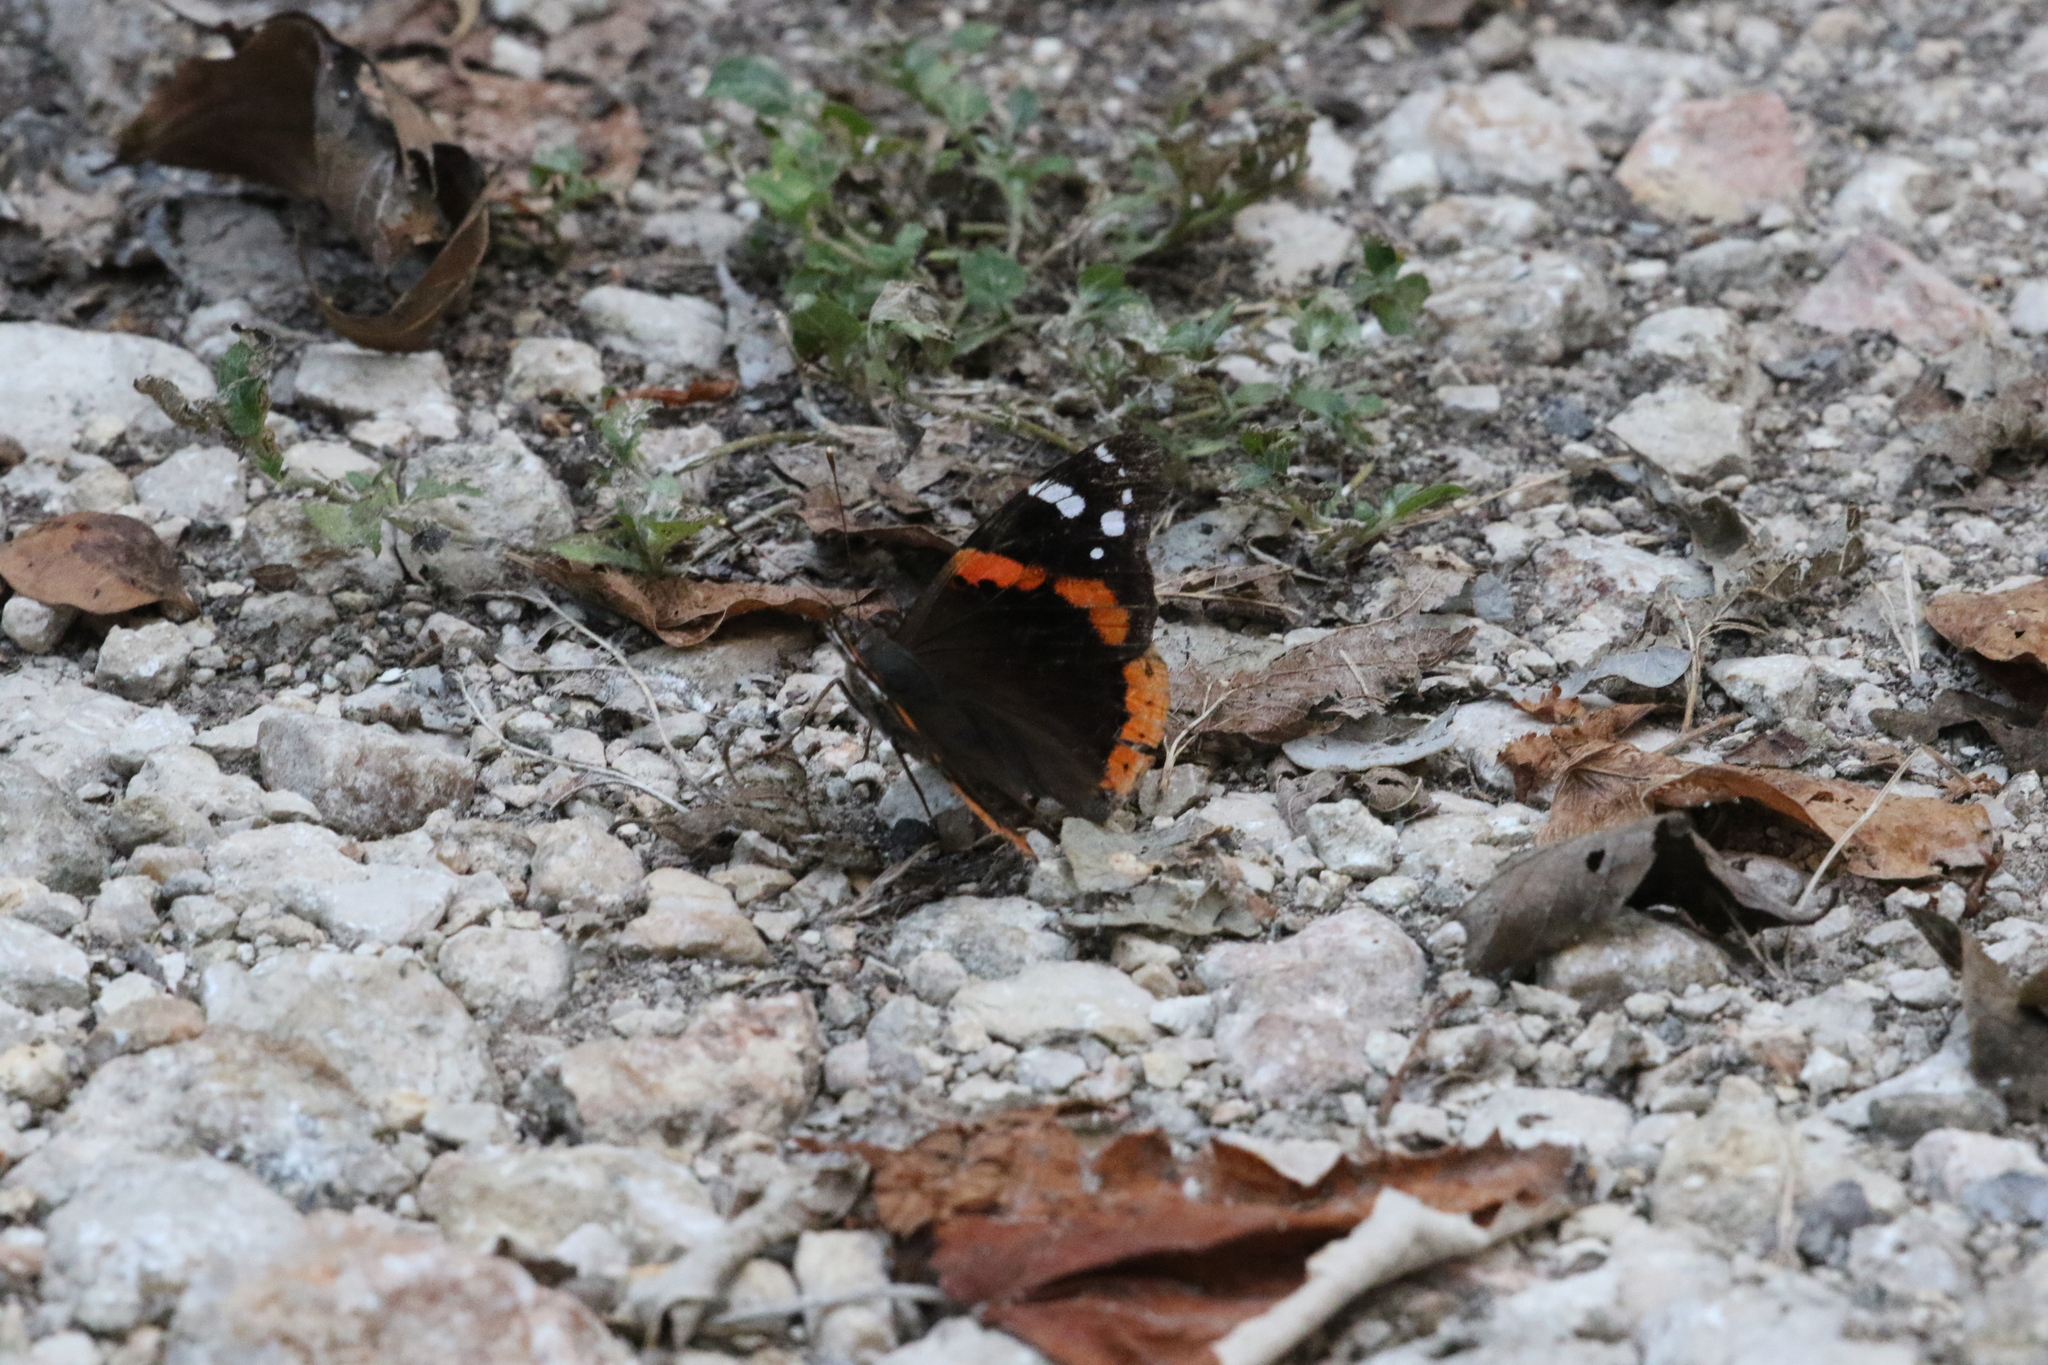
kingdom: Animalia
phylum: Arthropoda
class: Insecta
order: Lepidoptera
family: Nymphalidae
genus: Vanessa
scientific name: Vanessa atalanta
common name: Red admiral
